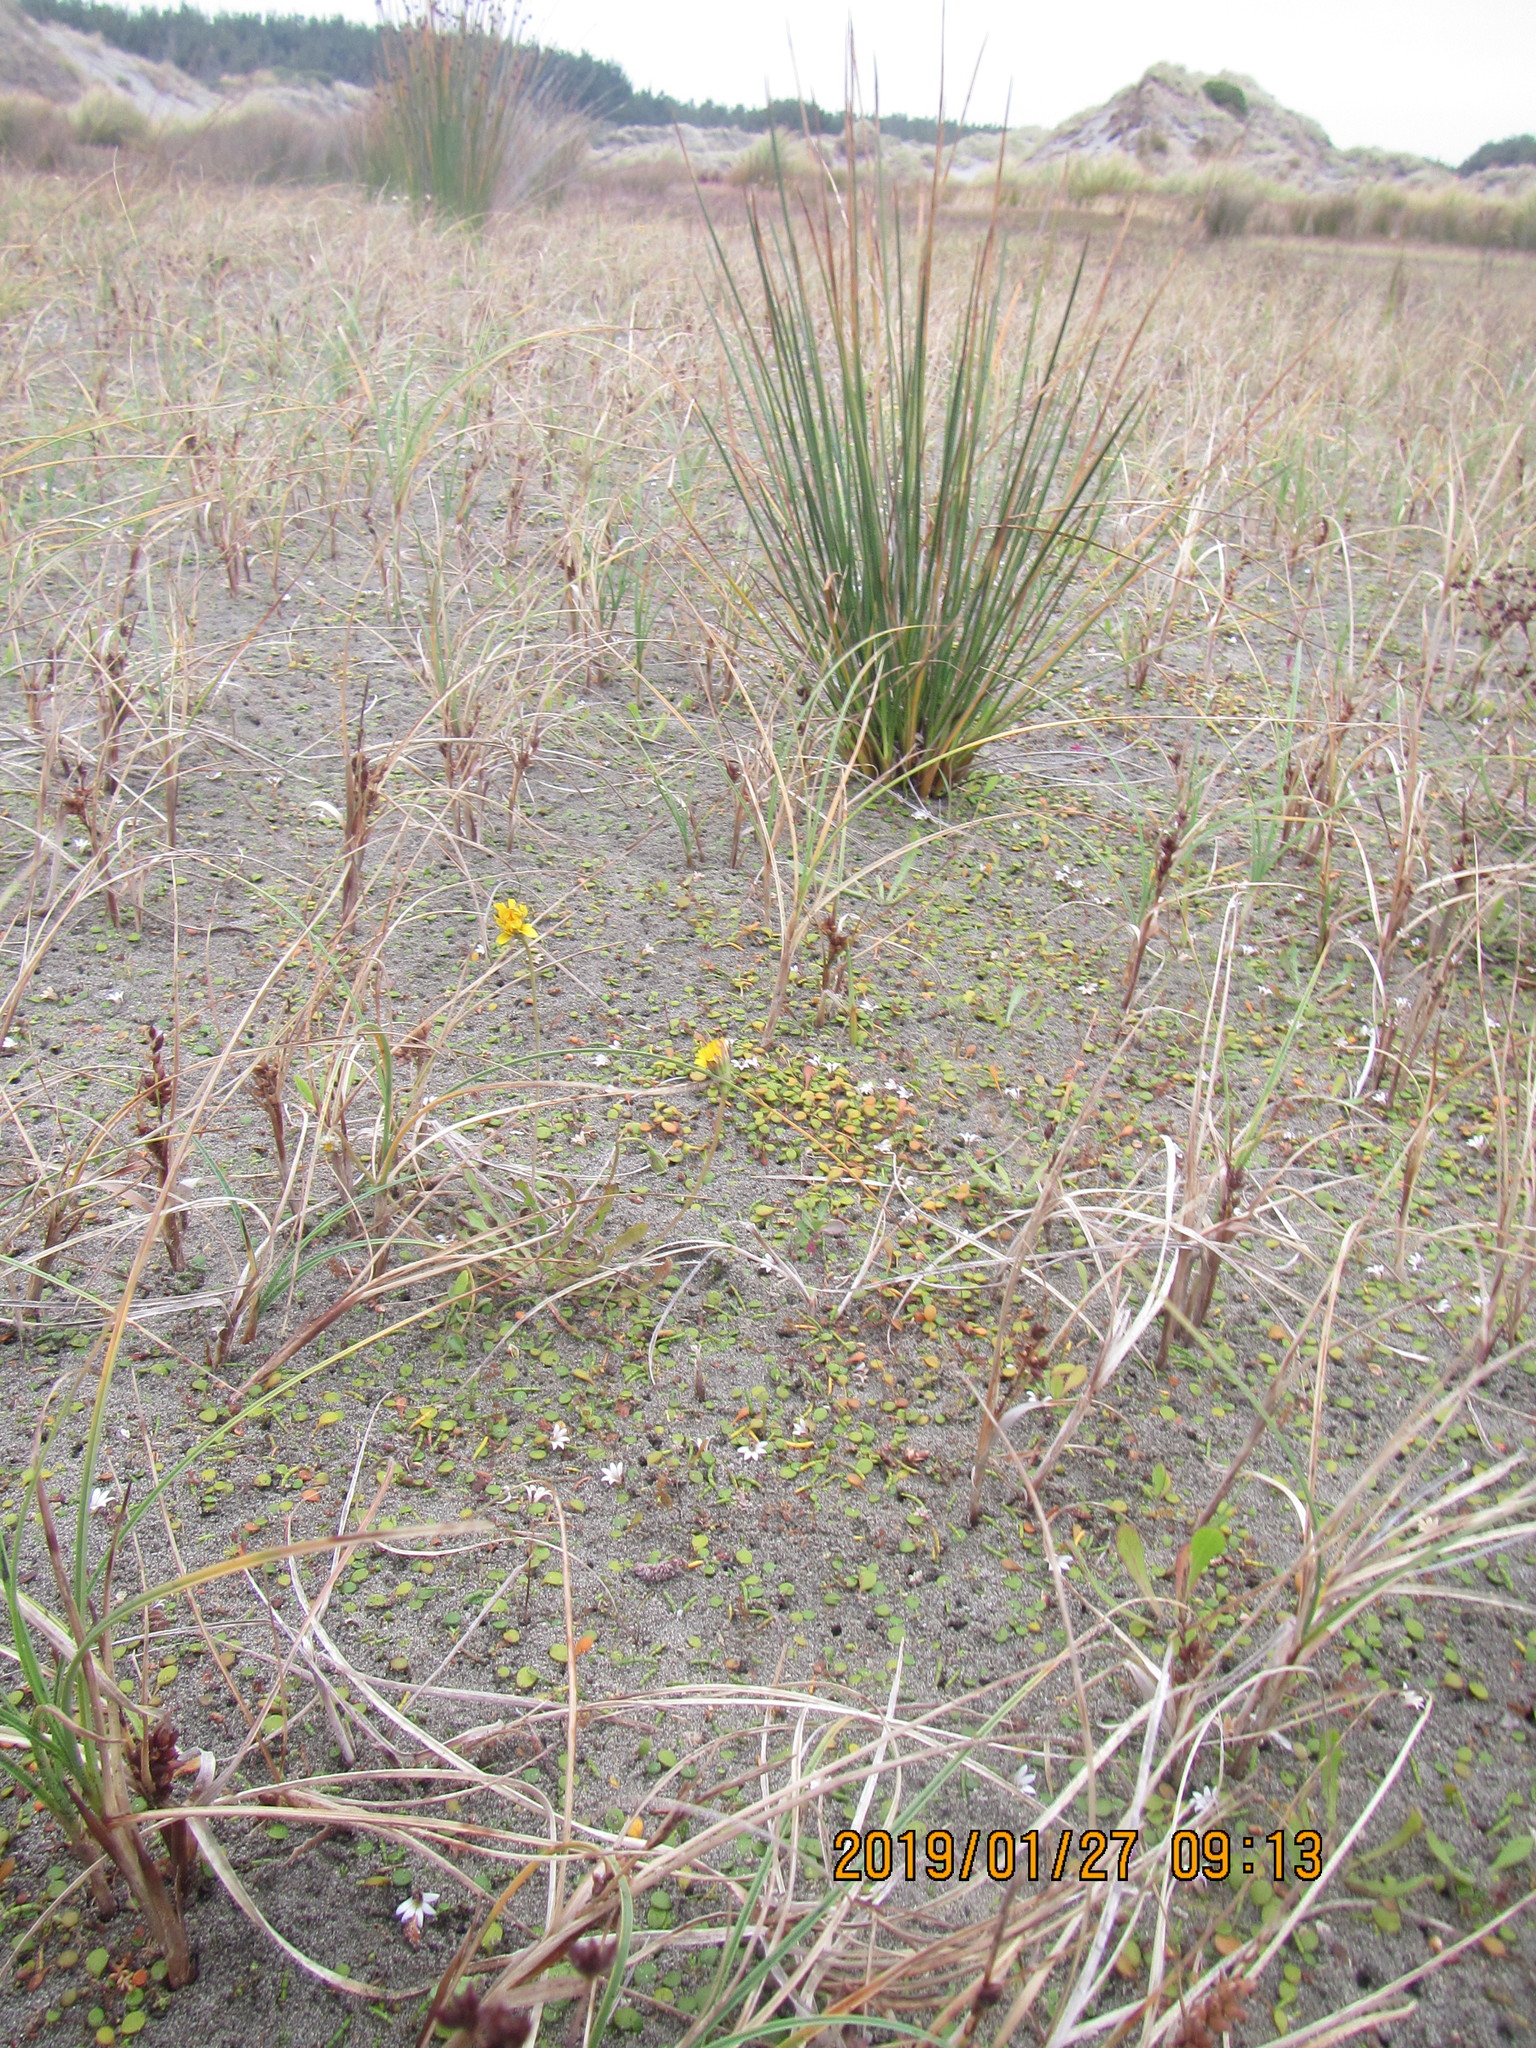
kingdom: Plantae
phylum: Tracheophyta
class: Magnoliopsida
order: Apiales
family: Apiaceae
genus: Lilaeopsis
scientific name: Lilaeopsis novae-zelandiae
